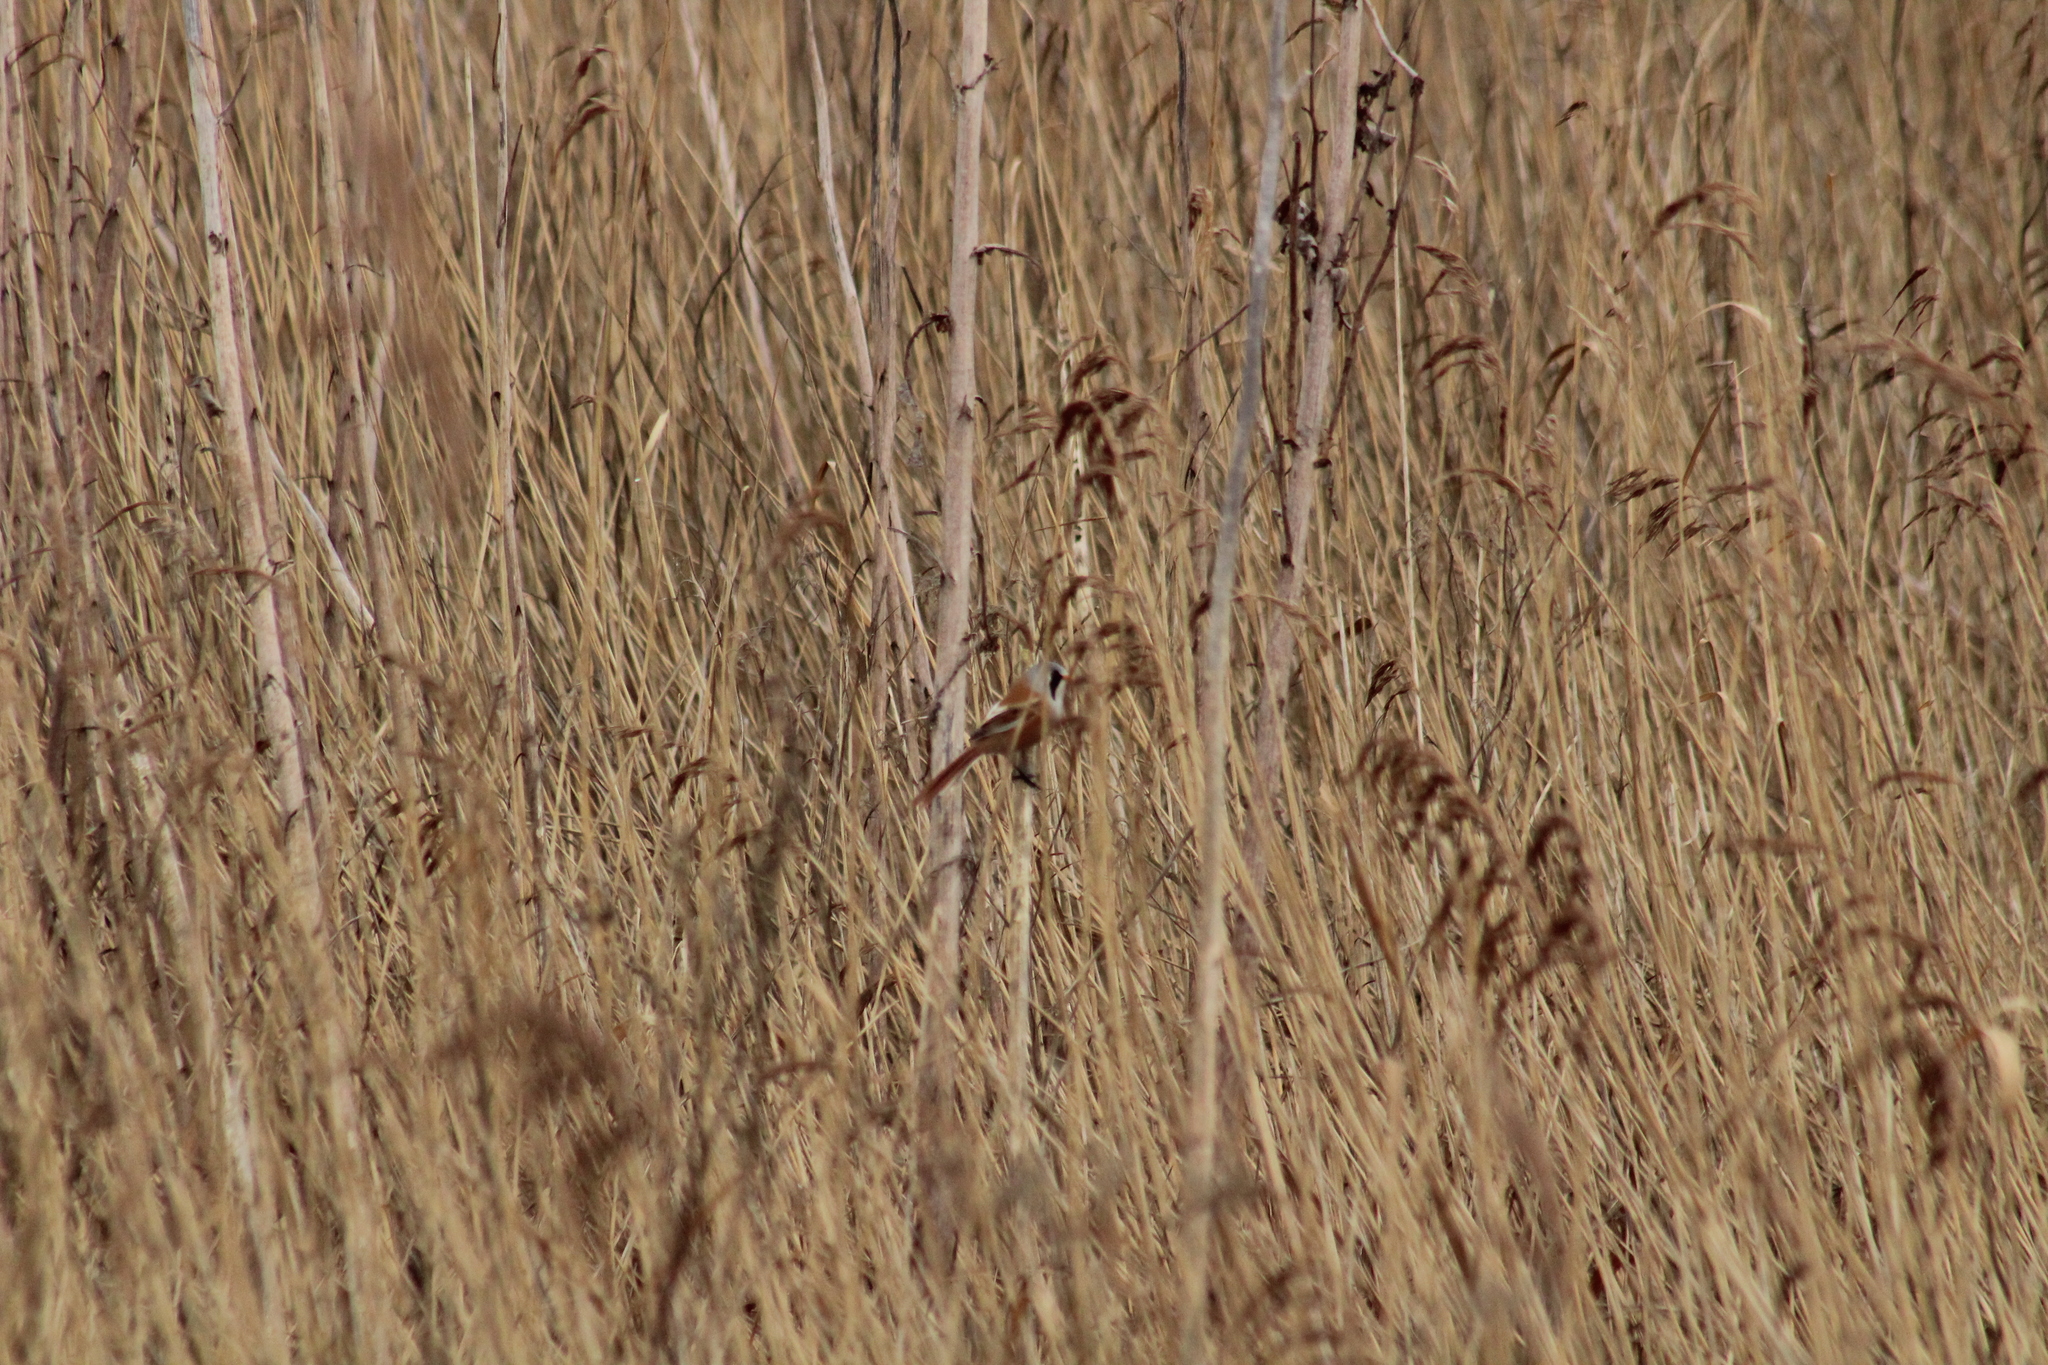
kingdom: Animalia
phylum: Chordata
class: Aves
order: Passeriformes
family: Panuridae
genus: Panurus
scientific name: Panurus biarmicus
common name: Bearded reedling
